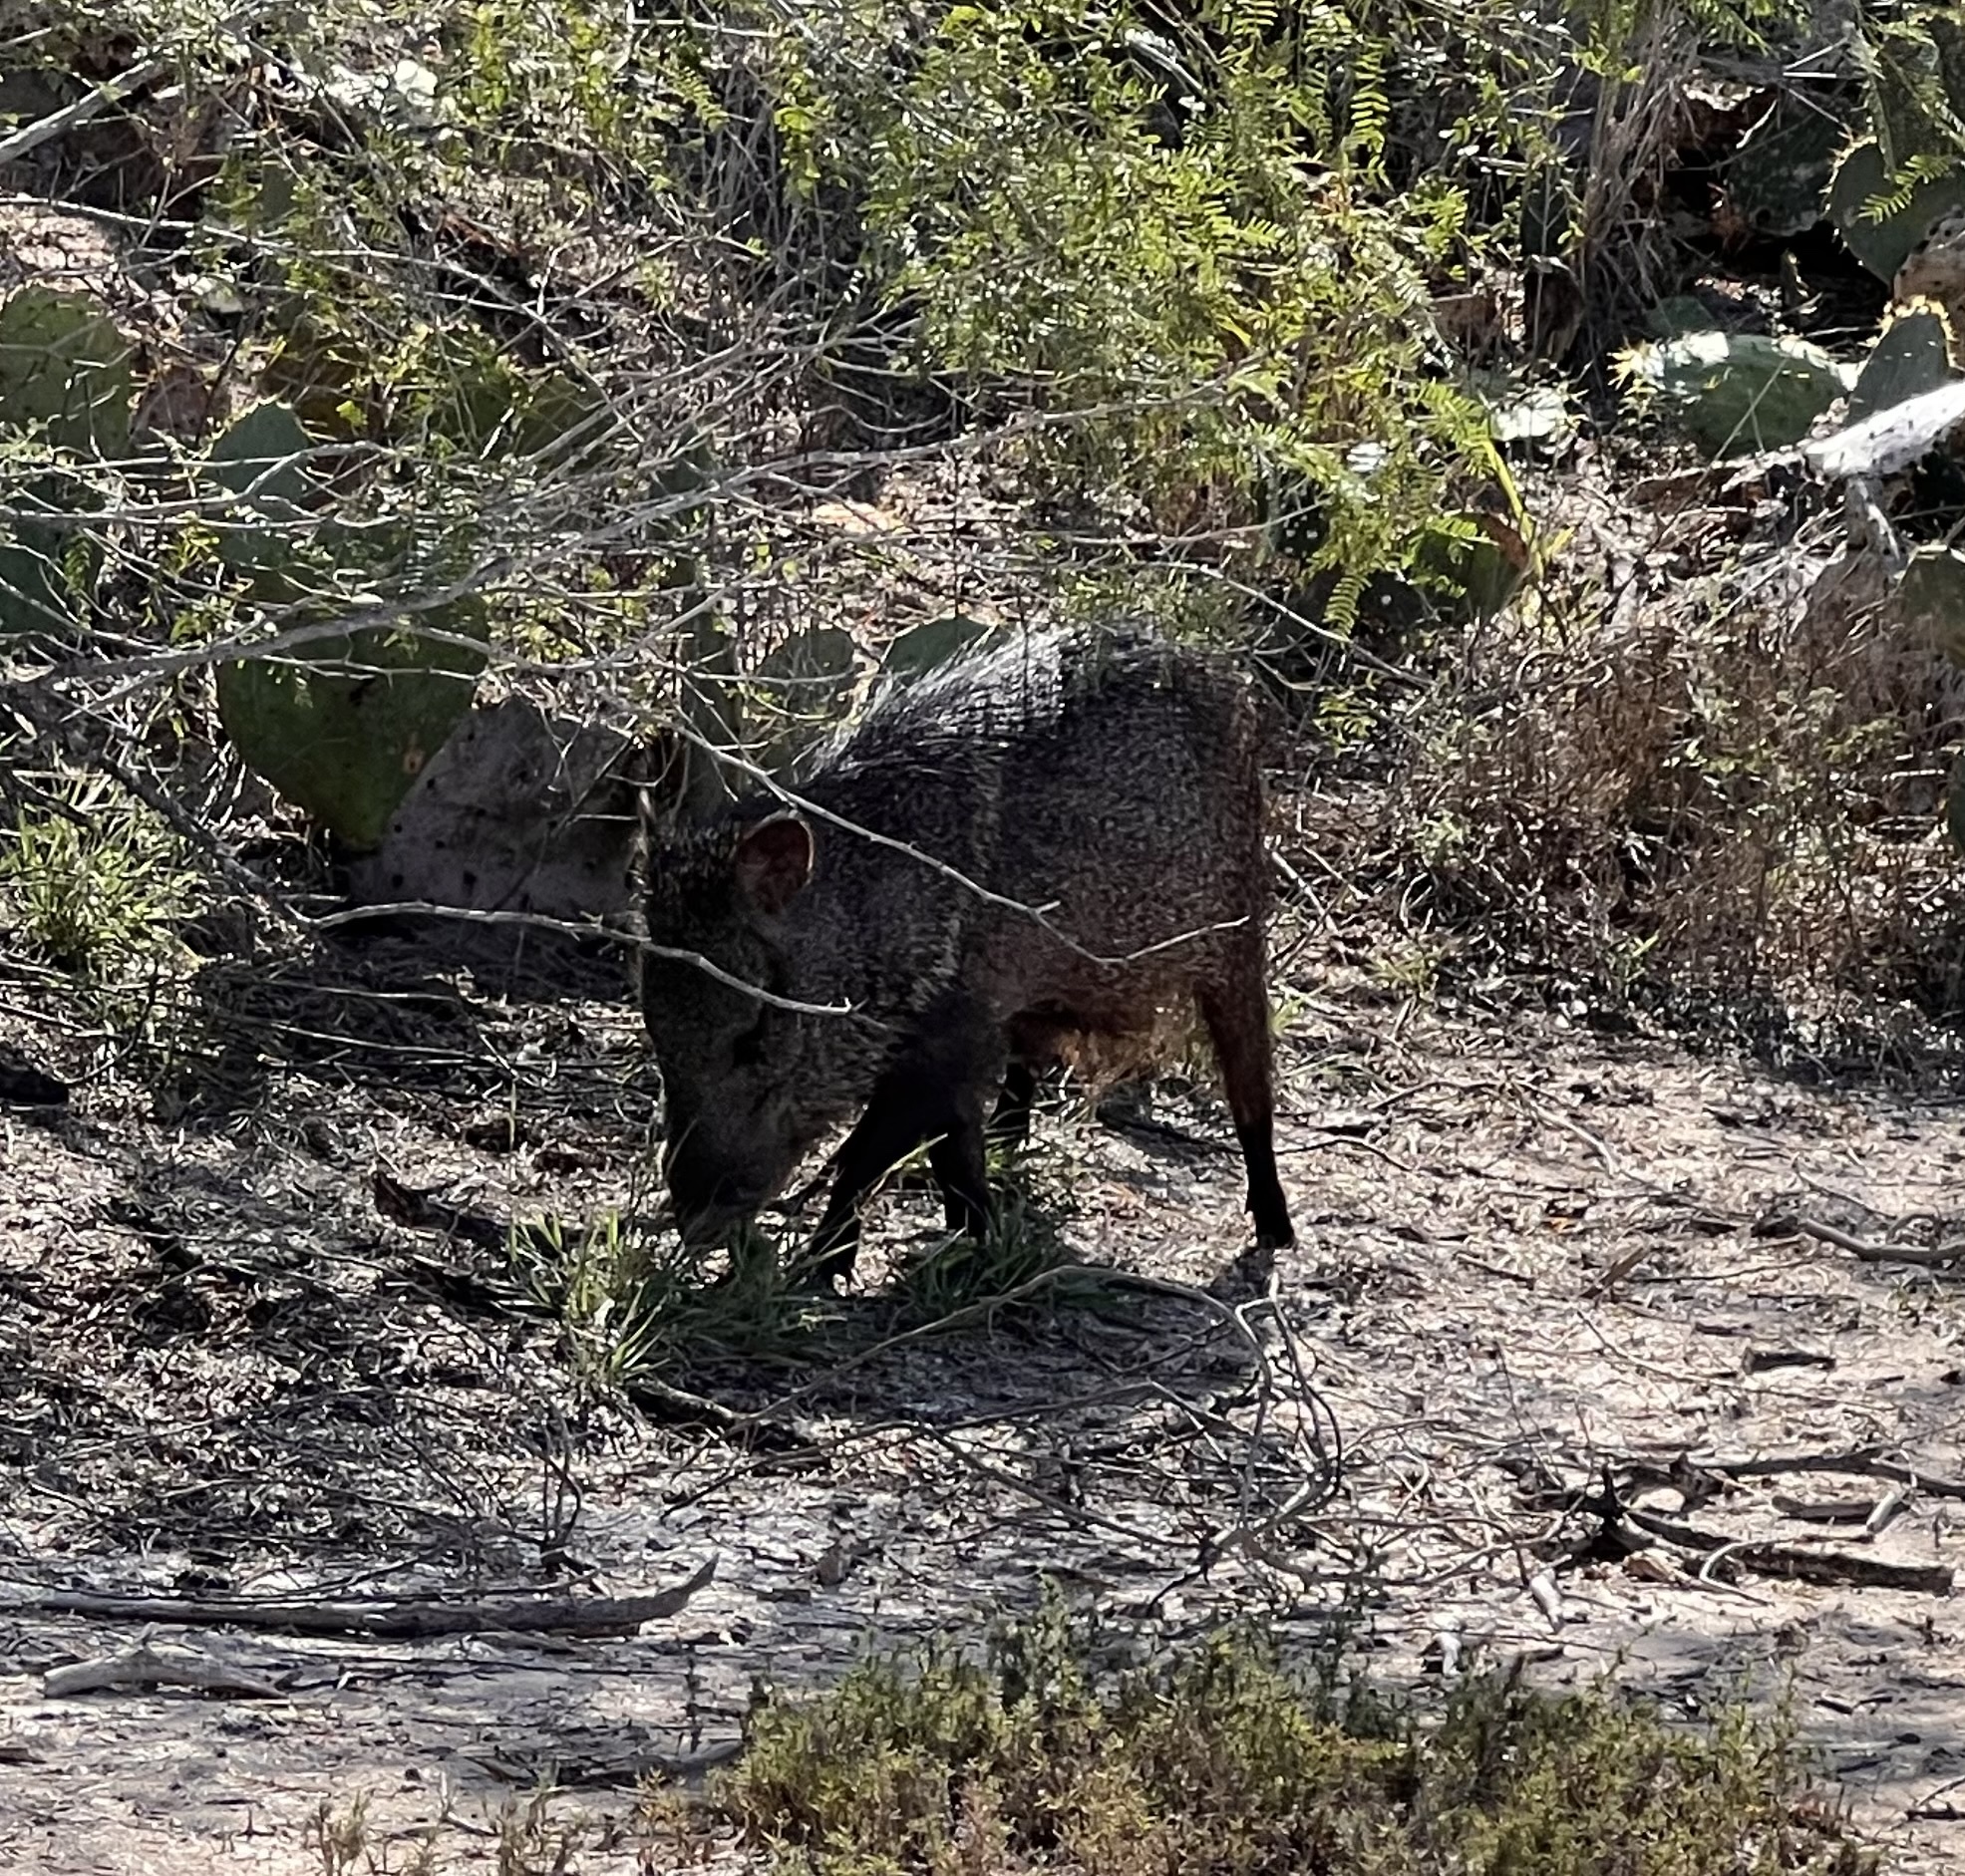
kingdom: Animalia
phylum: Chordata
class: Mammalia
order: Artiodactyla
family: Tayassuidae
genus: Pecari
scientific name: Pecari tajacu
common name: Collared peccary
